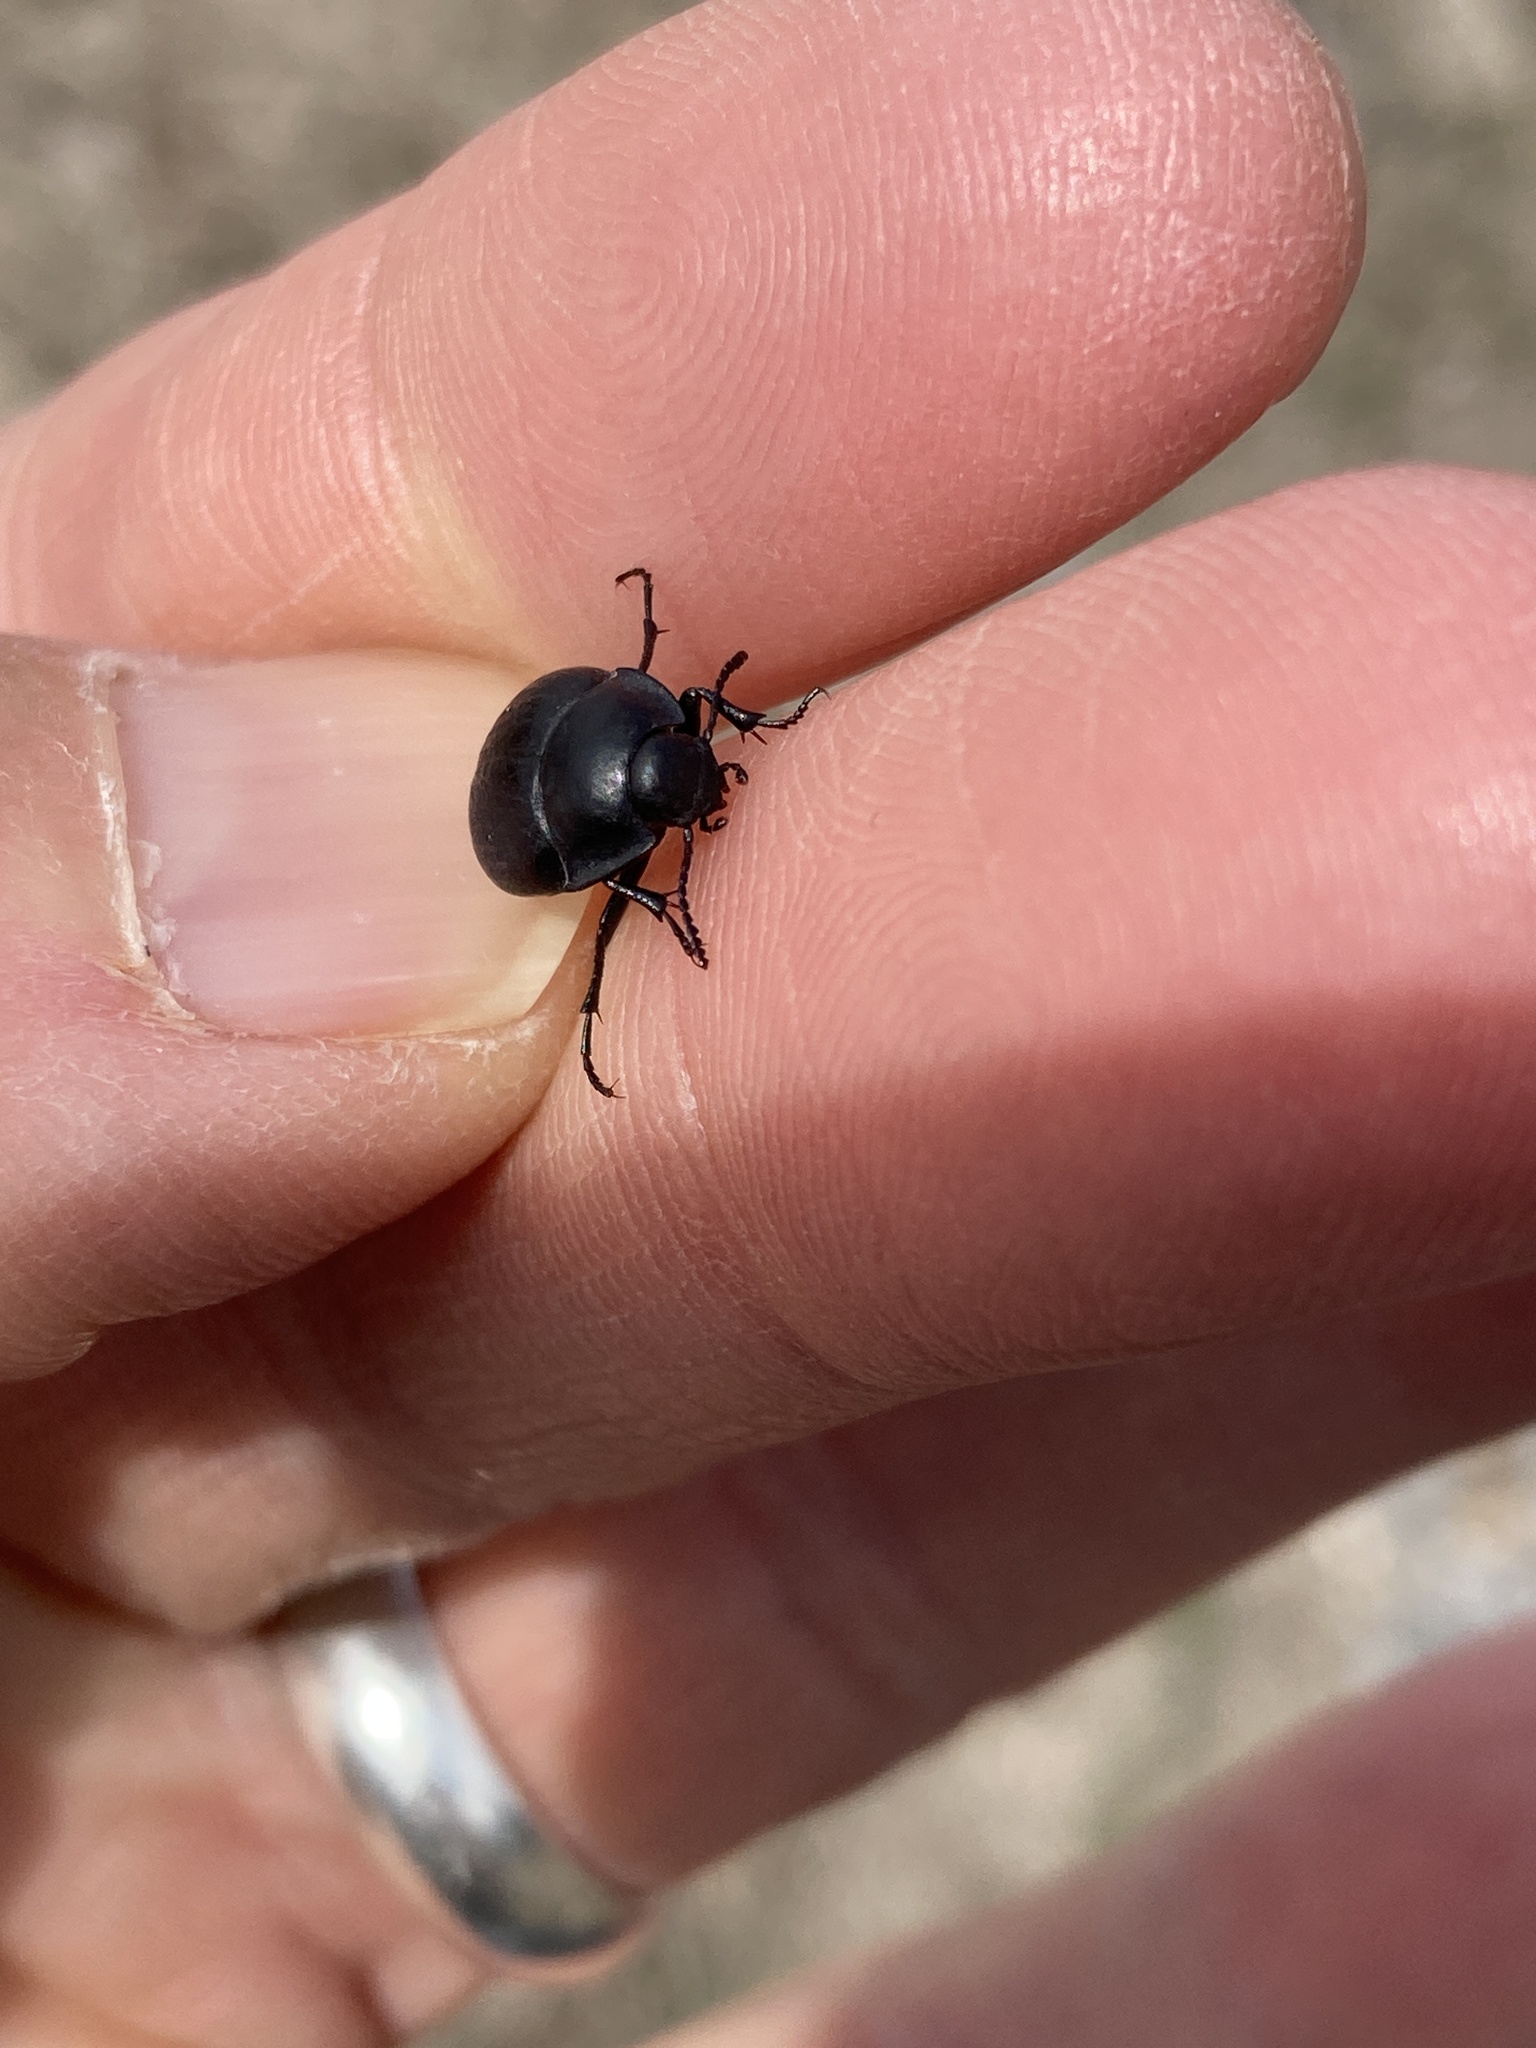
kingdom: Animalia
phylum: Arthropoda
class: Insecta
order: Coleoptera
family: Tenebrionidae
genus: Eusattus
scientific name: Eusattus reticulatus
